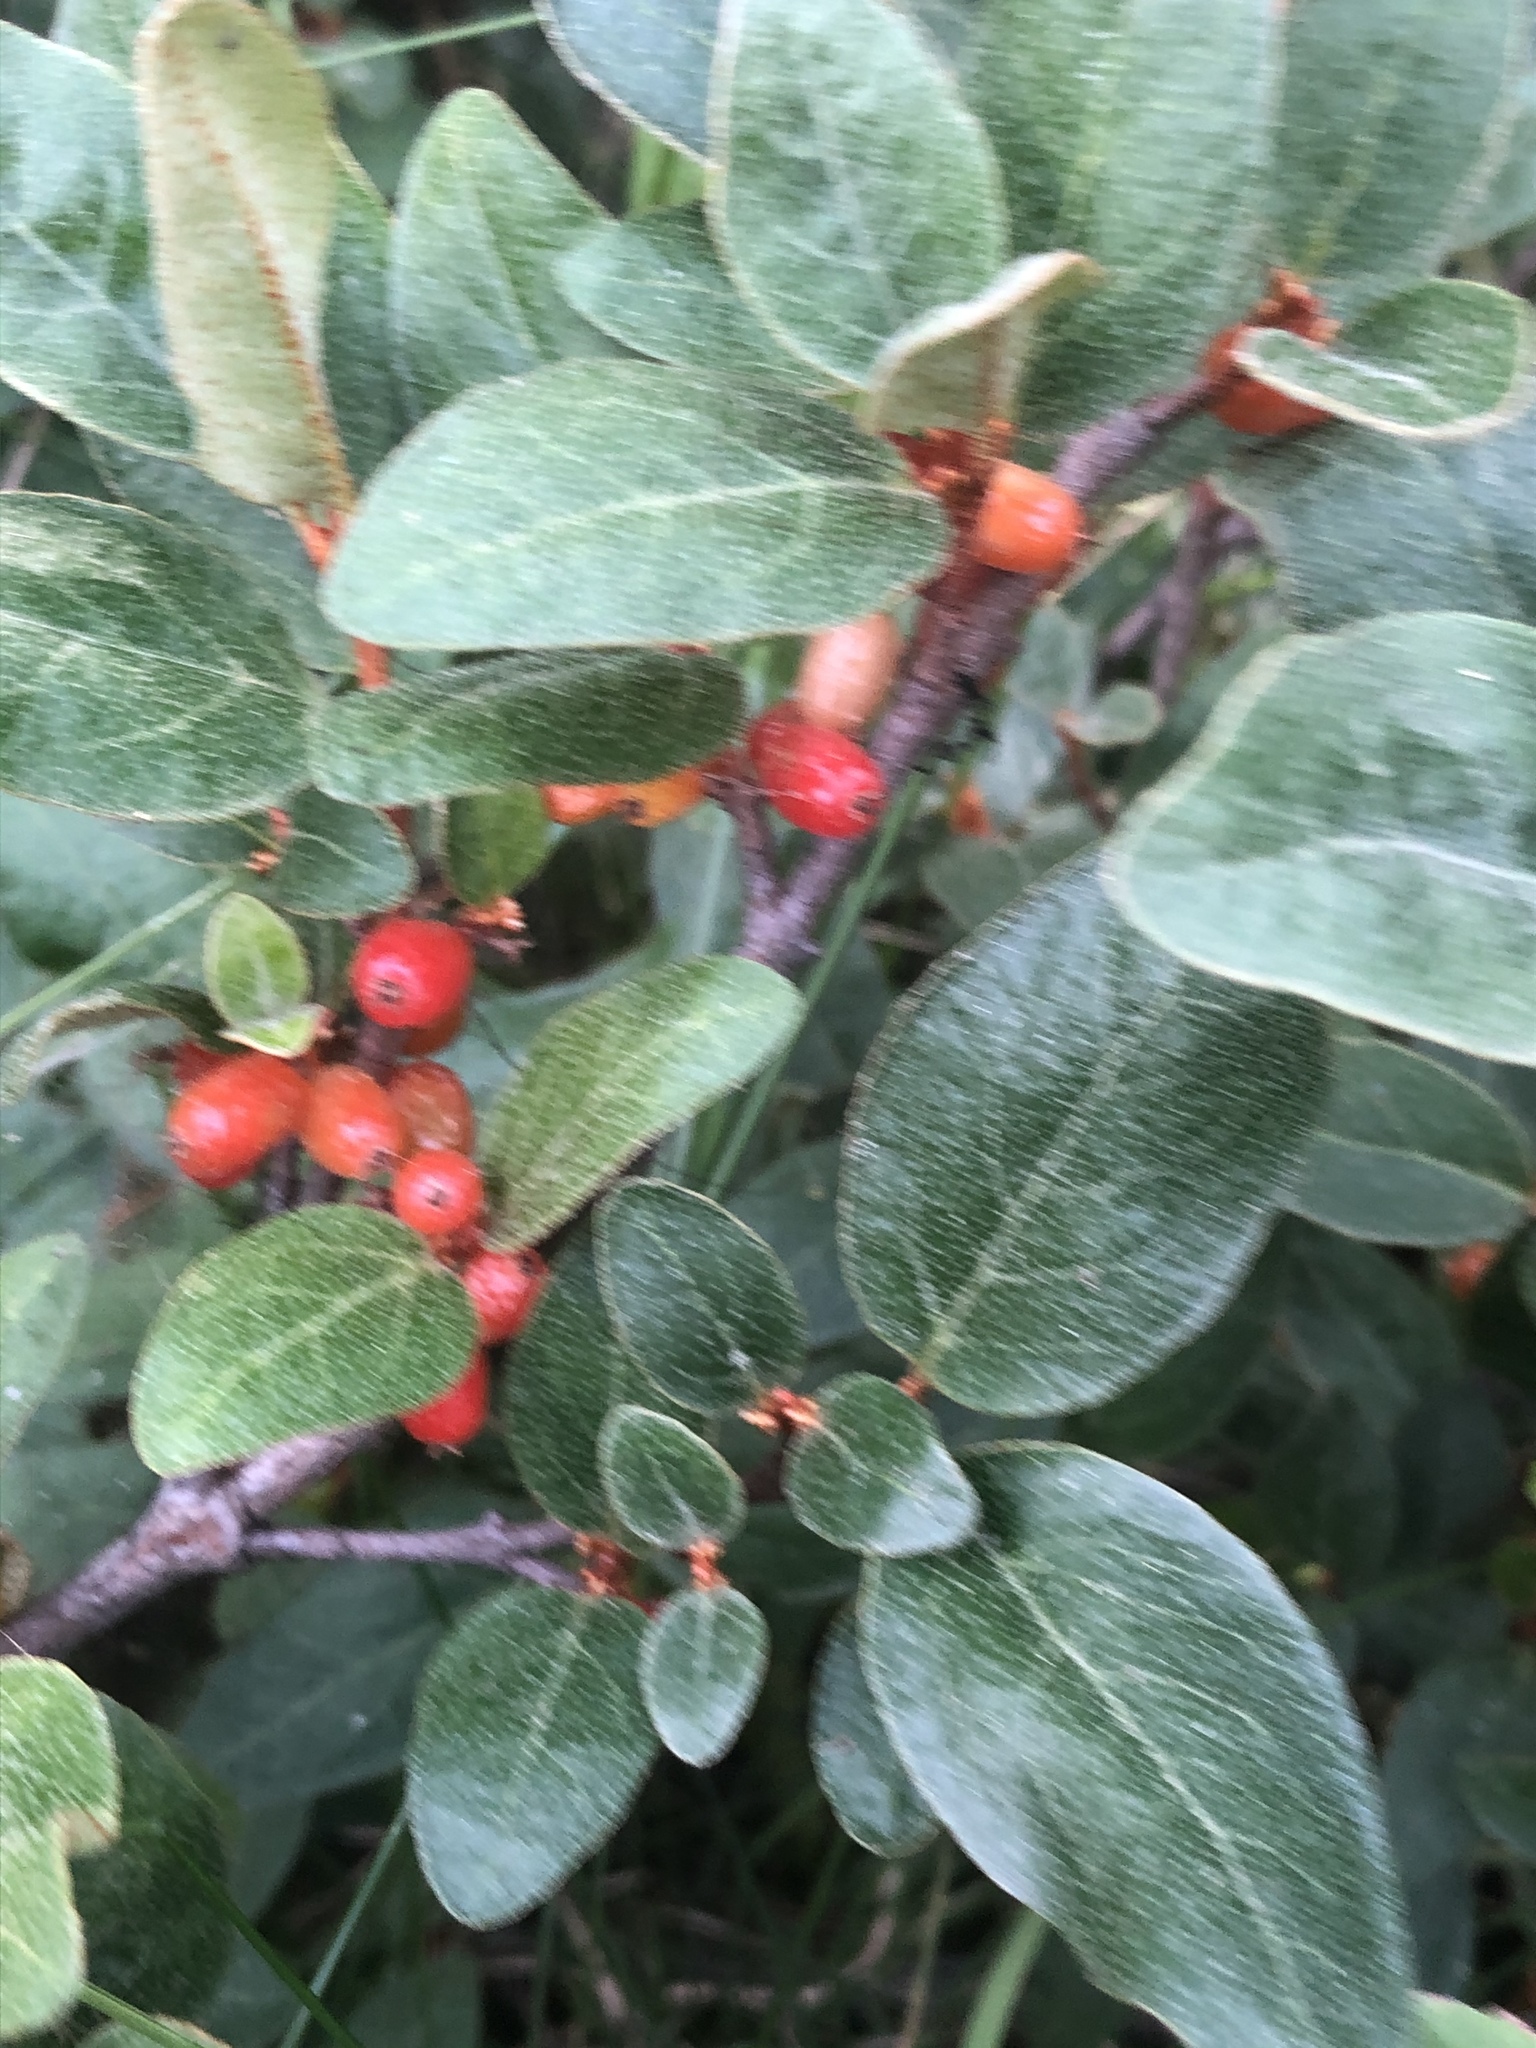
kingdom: Plantae
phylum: Tracheophyta
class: Magnoliopsida
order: Rosales
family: Elaeagnaceae
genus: Shepherdia
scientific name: Shepherdia canadensis
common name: Soapberry
